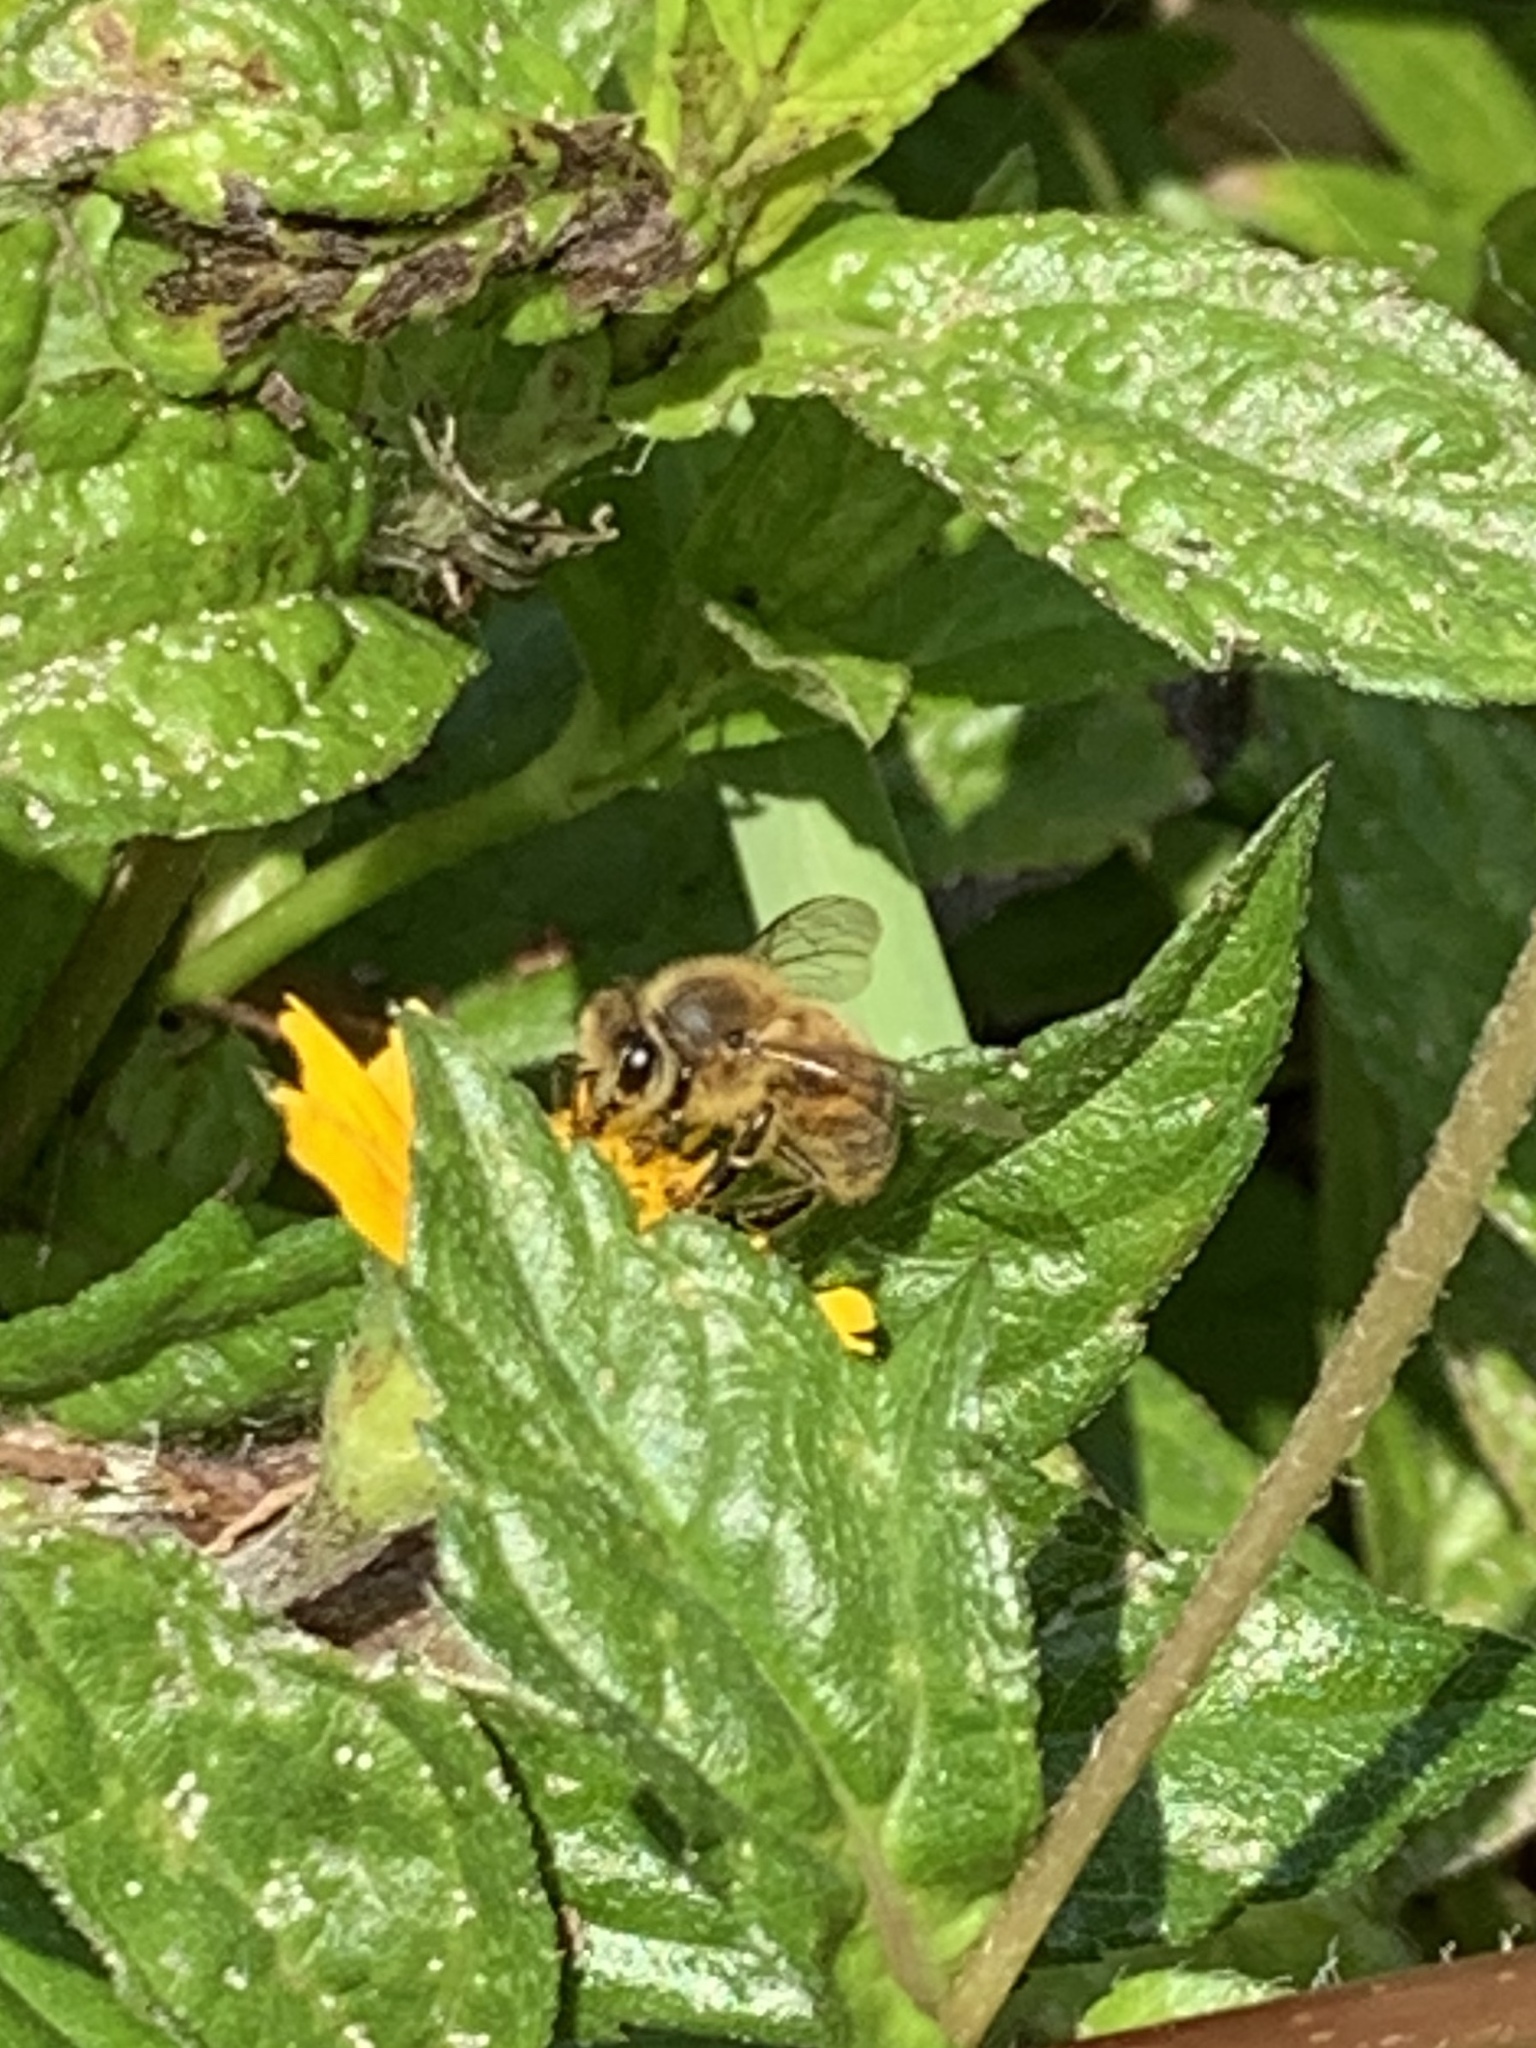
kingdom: Animalia
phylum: Arthropoda
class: Insecta
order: Hymenoptera
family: Apidae
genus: Apis
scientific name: Apis mellifera
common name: Honey bee
